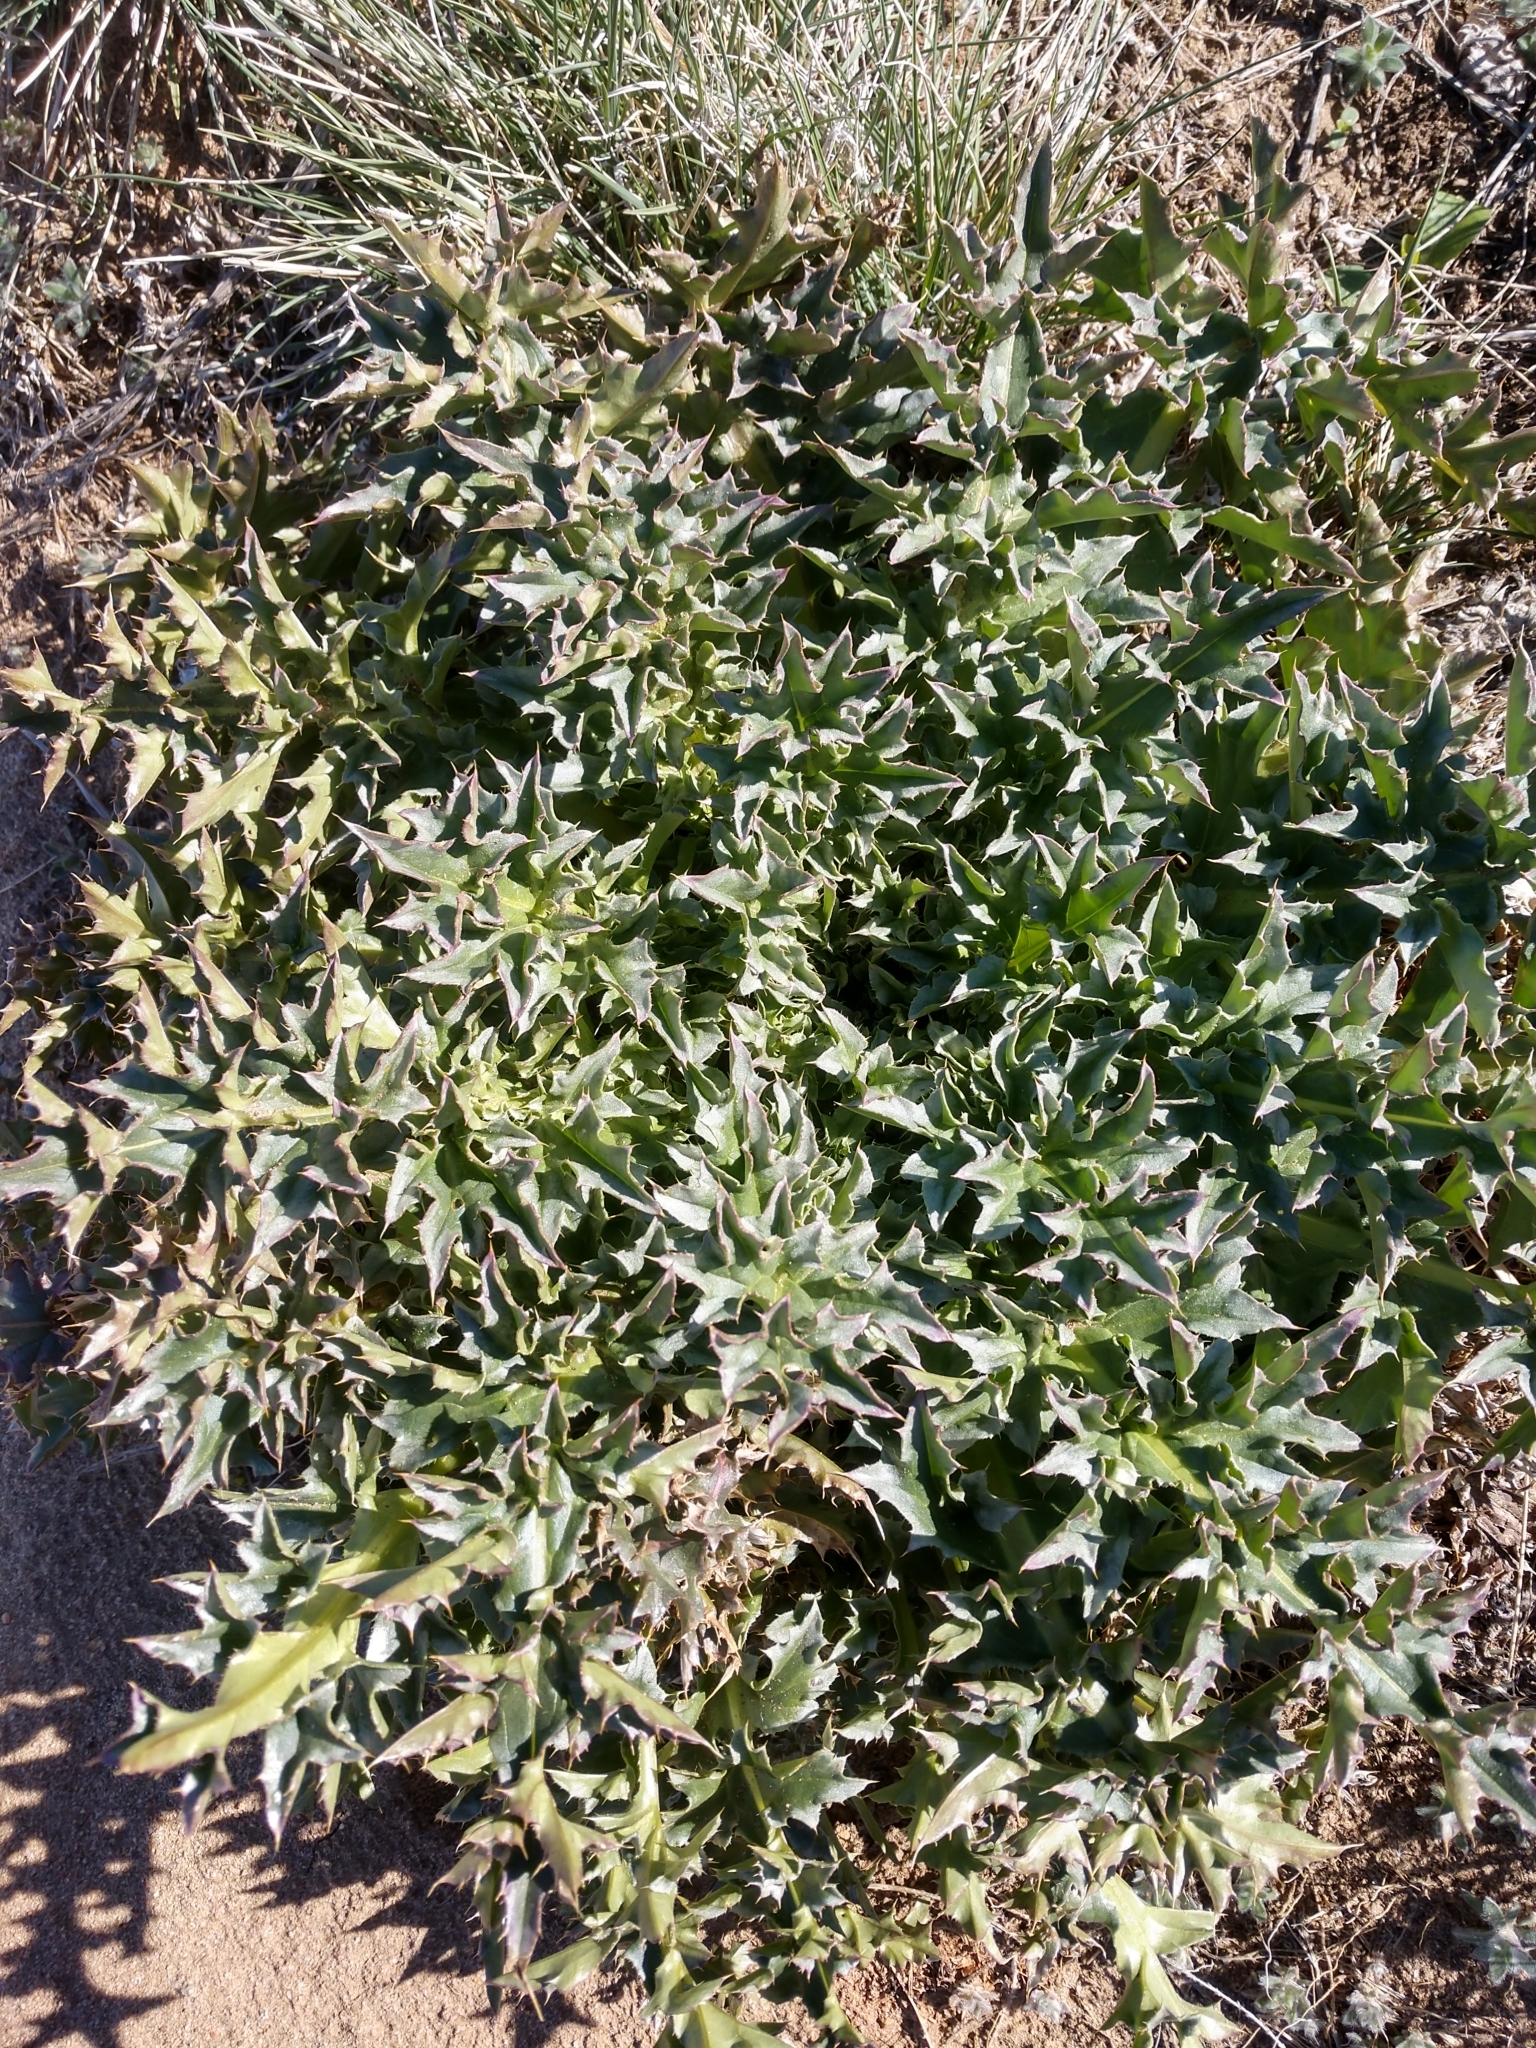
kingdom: Plantae
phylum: Tracheophyta
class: Magnoliopsida
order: Asterales
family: Asteraceae
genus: Carduus
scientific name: Carduus nutans
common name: Musk thistle
